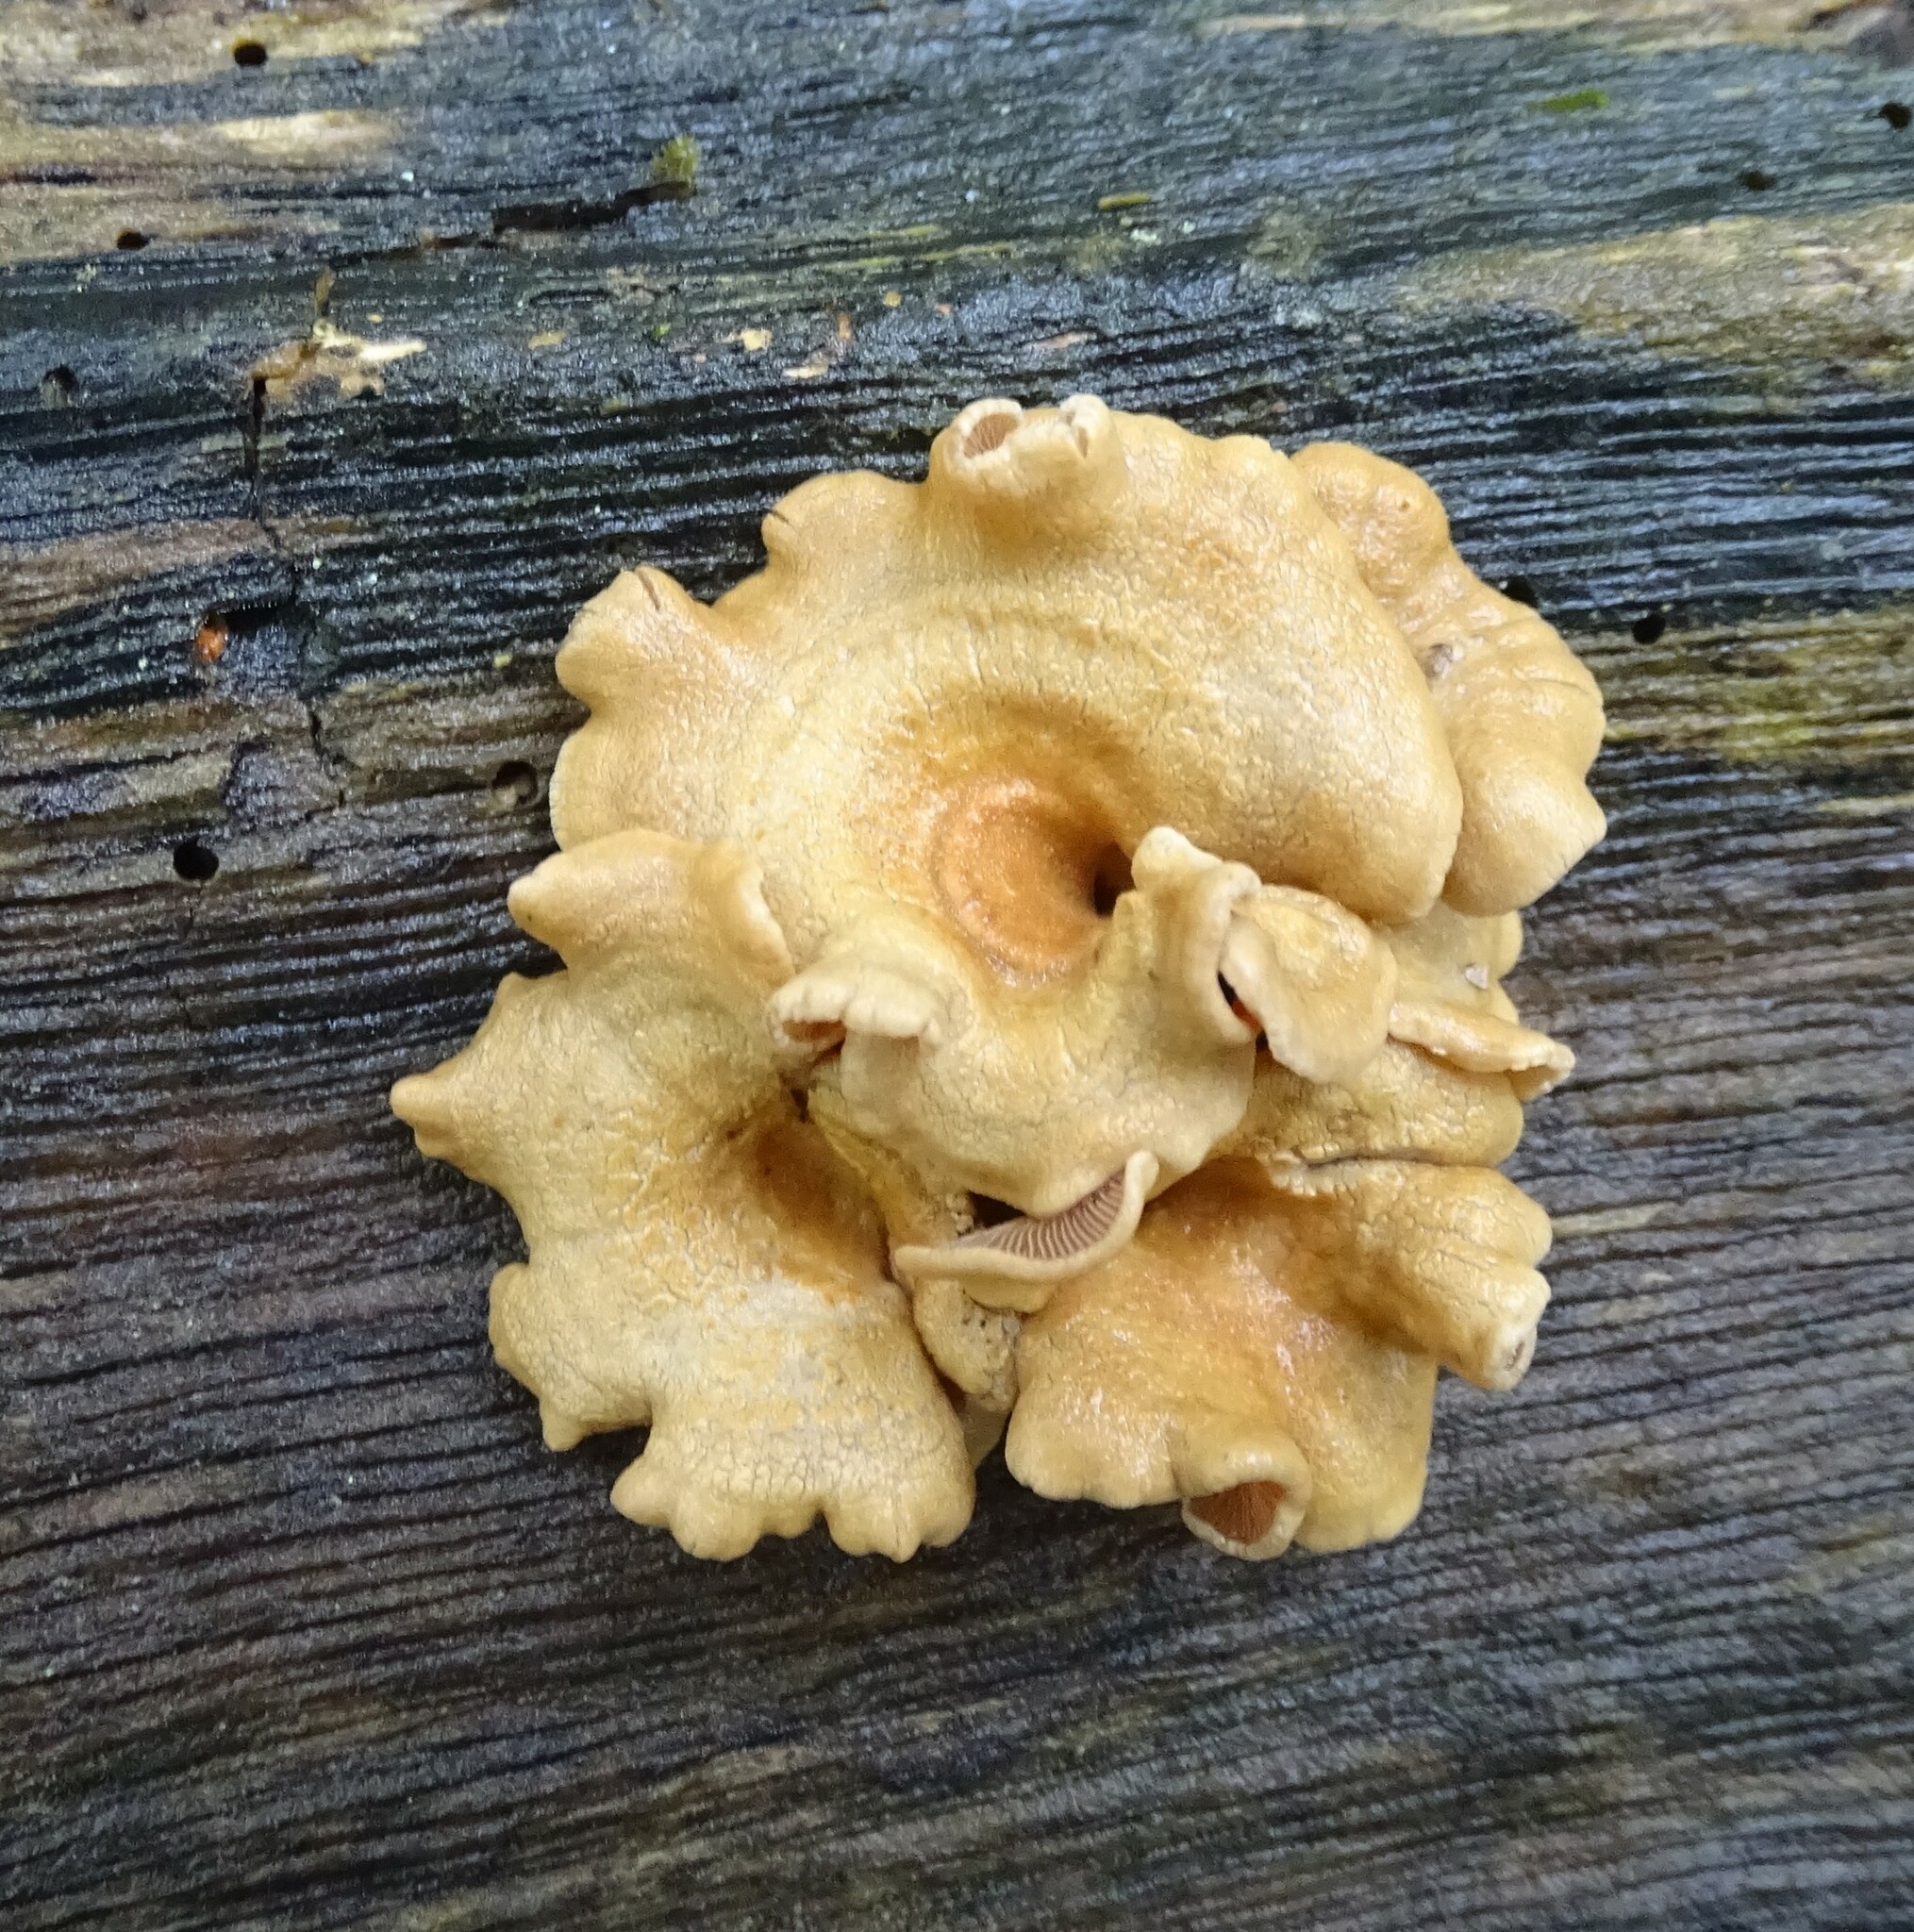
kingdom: Fungi
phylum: Basidiomycota
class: Agaricomycetes
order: Agaricales
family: Mycenaceae
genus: Panellus
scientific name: Panellus stipticus
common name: Bitter oysterling
